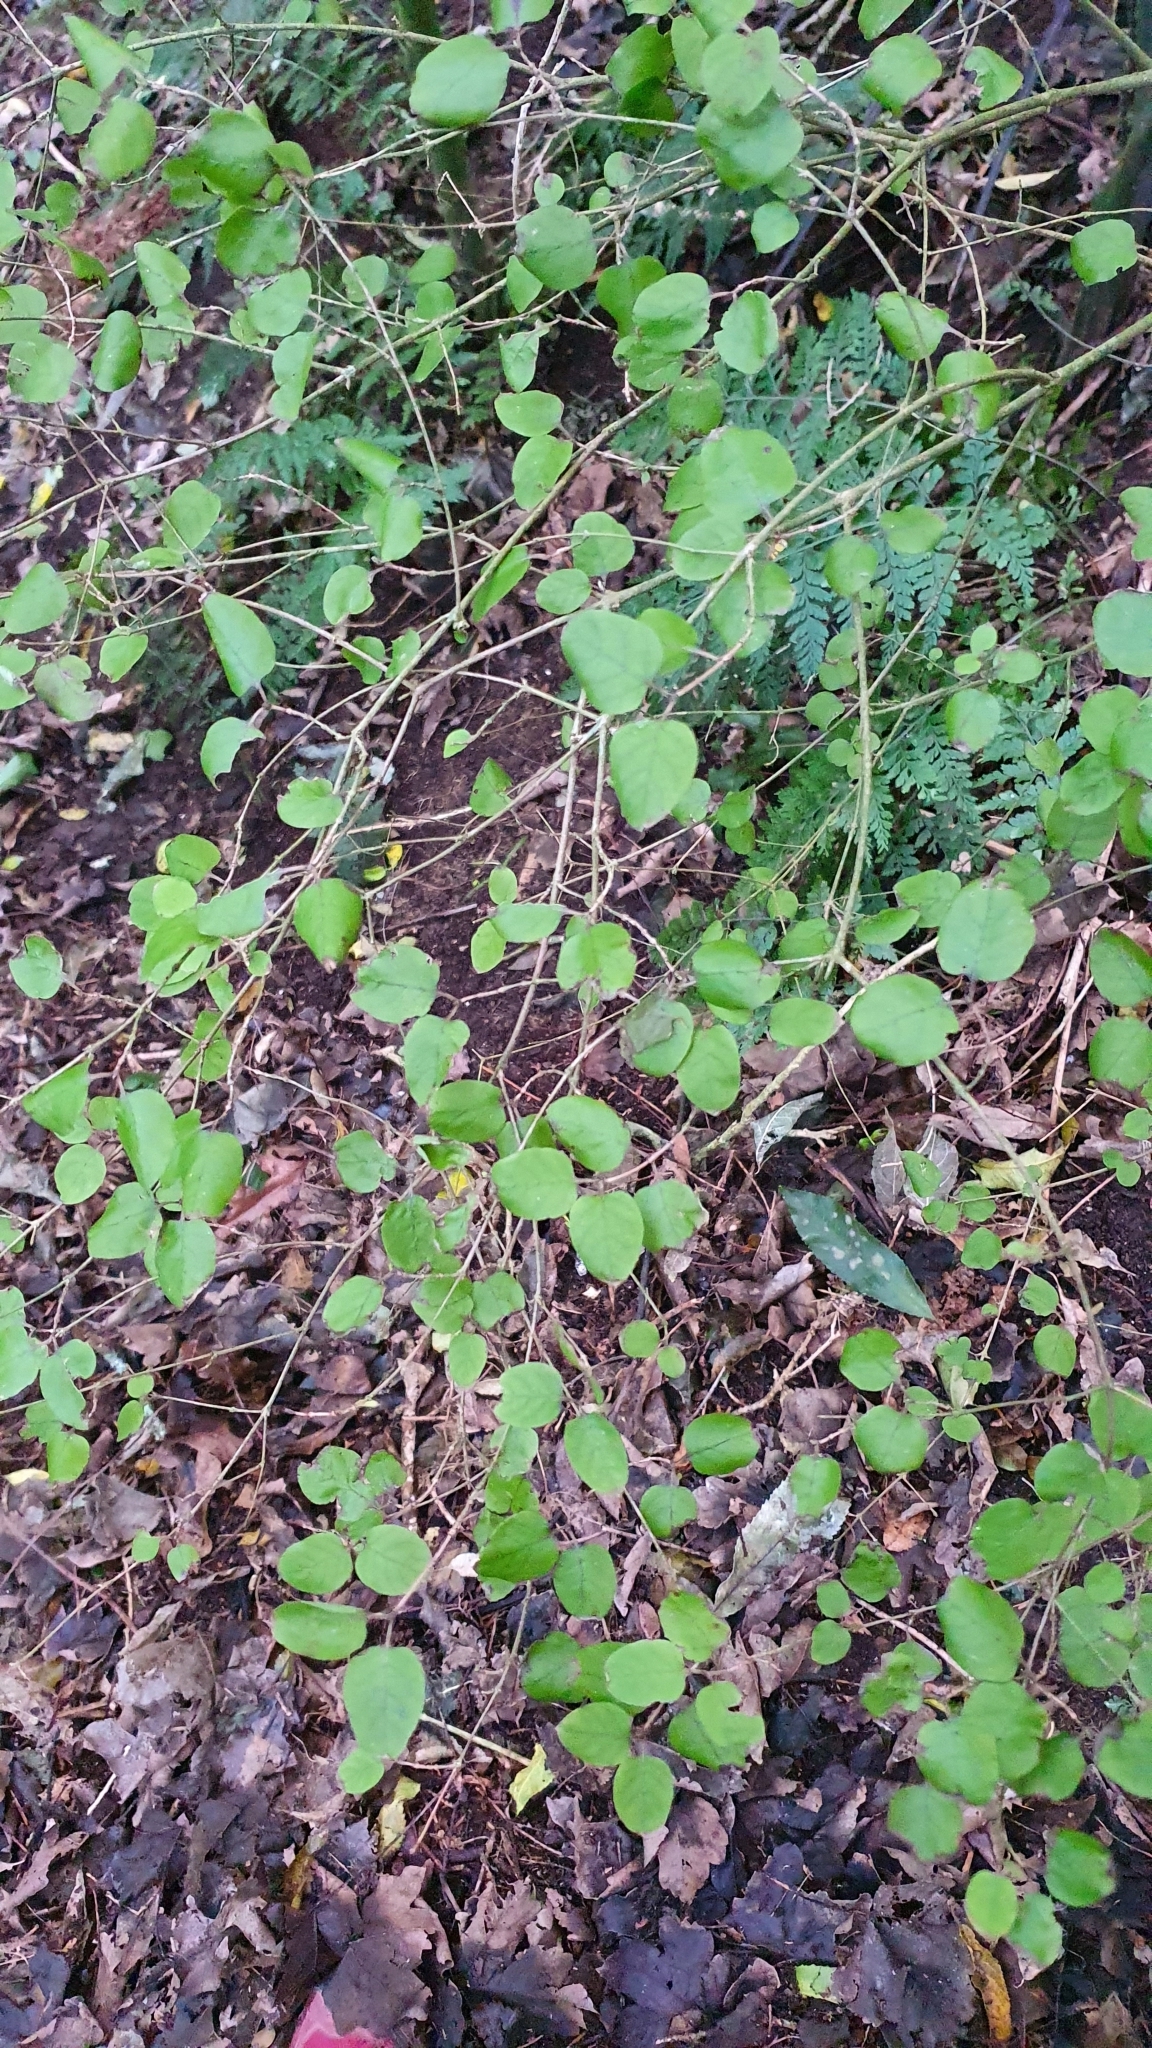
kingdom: Plantae
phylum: Tracheophyta
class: Magnoliopsida
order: Gentianales
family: Rubiaceae
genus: Coprosma
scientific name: Coprosma rotundifolia
